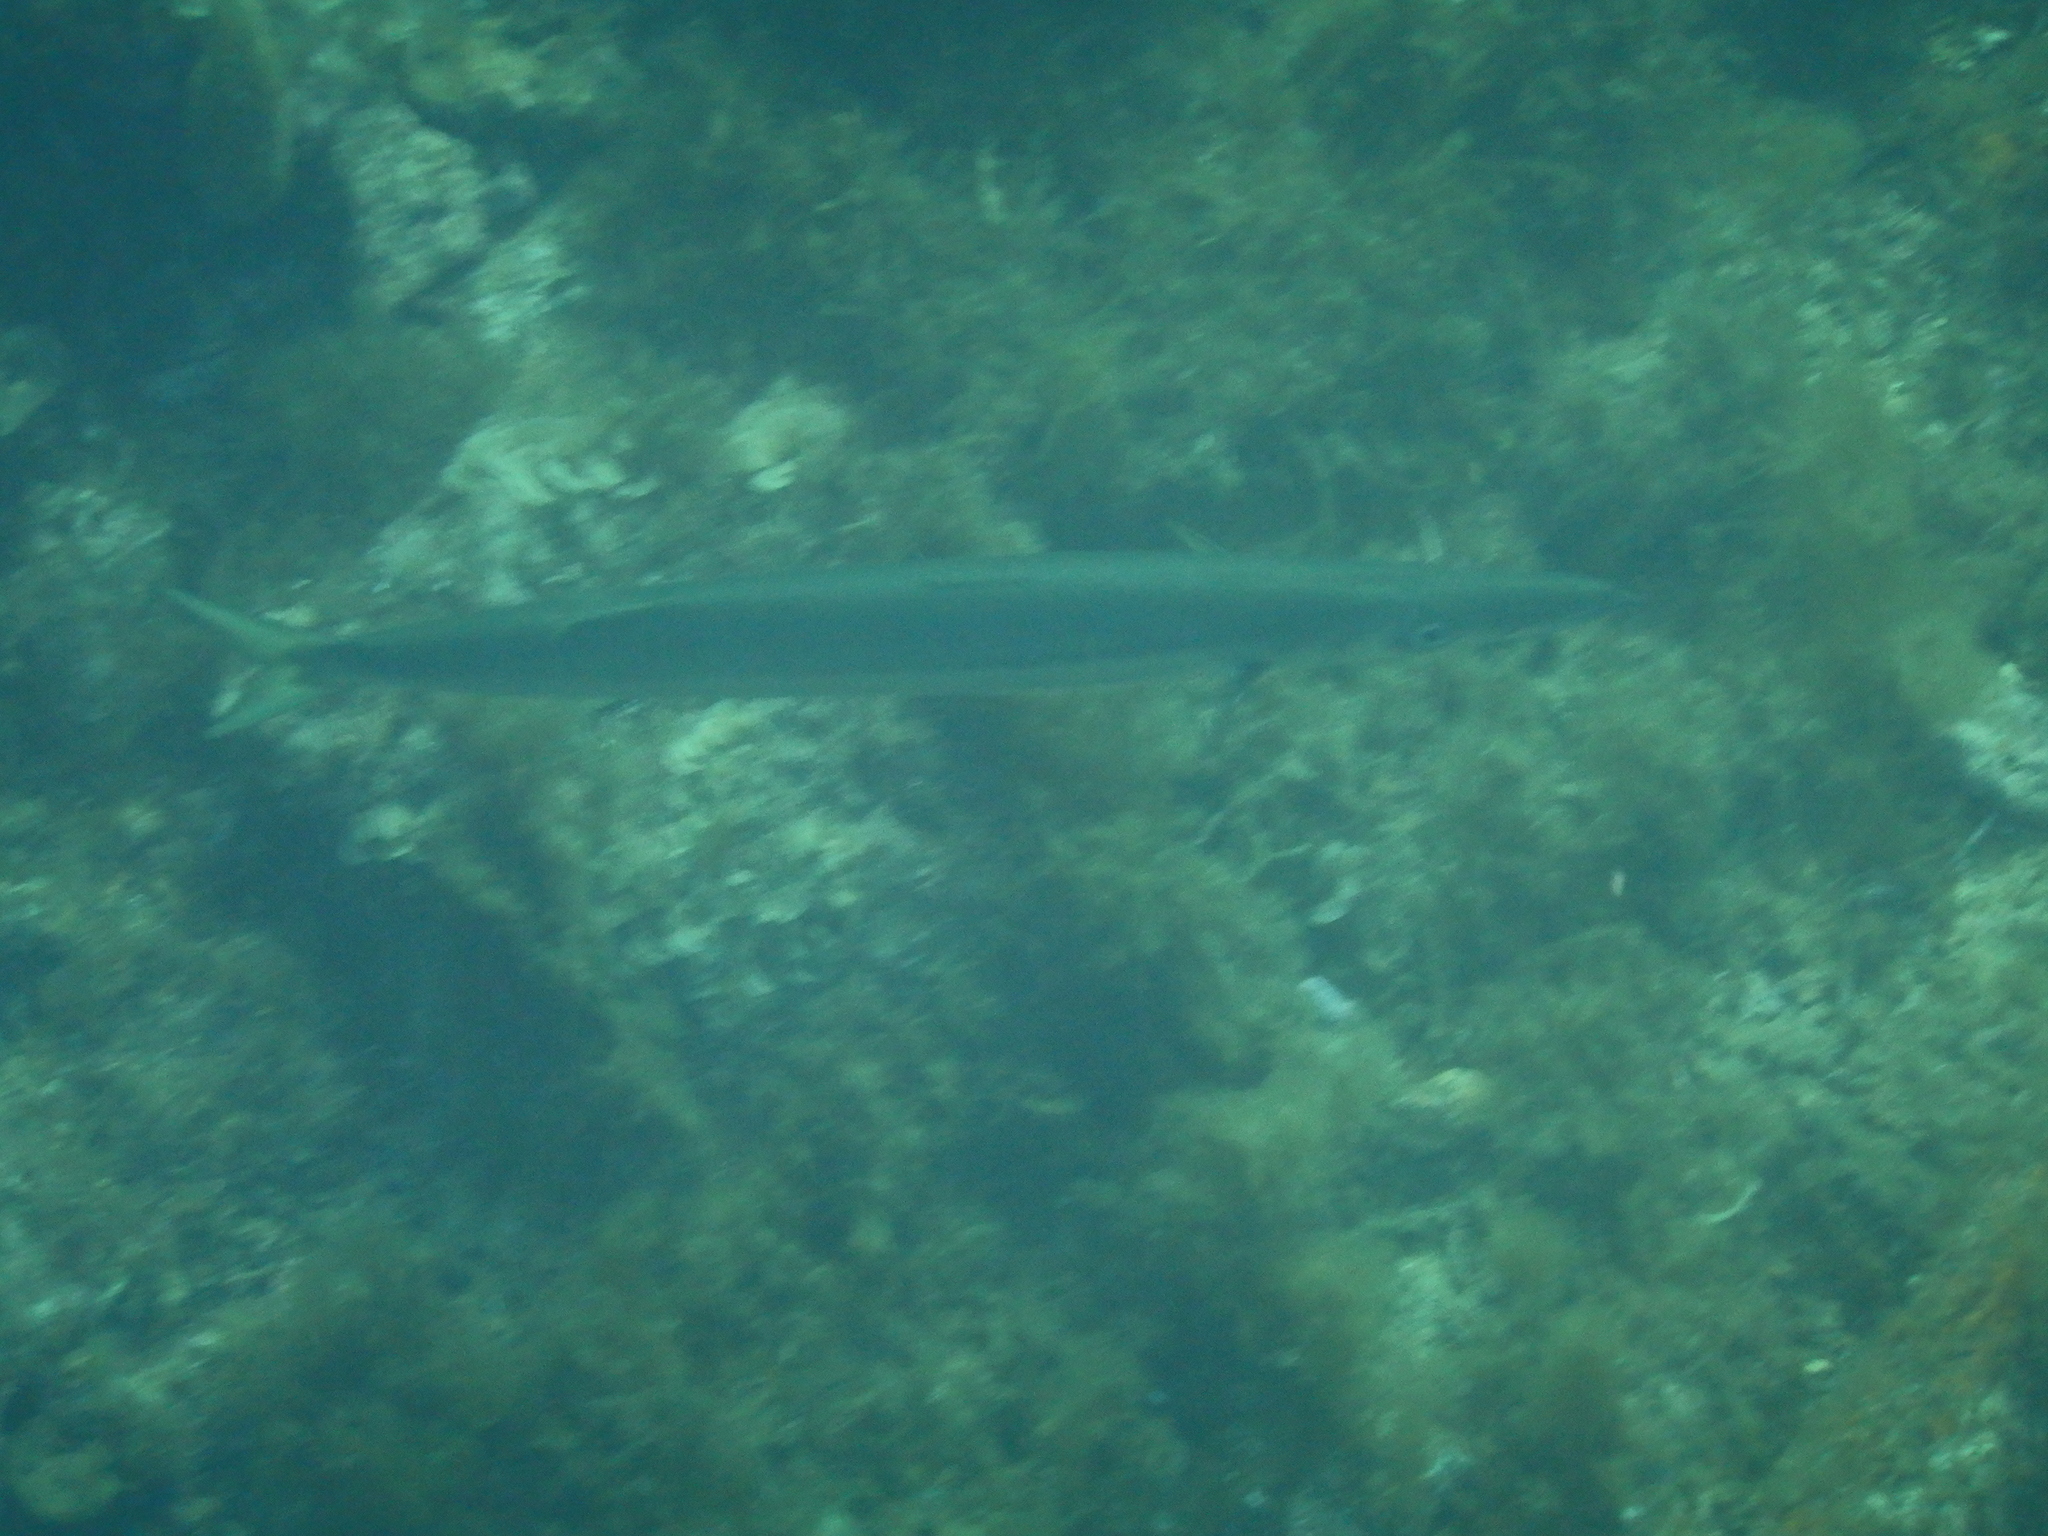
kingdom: Animalia
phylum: Chordata
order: Perciformes
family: Sphyraenidae
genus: Sphyraena
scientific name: Sphyraena novaehollandiae
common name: Arrow barracuda
